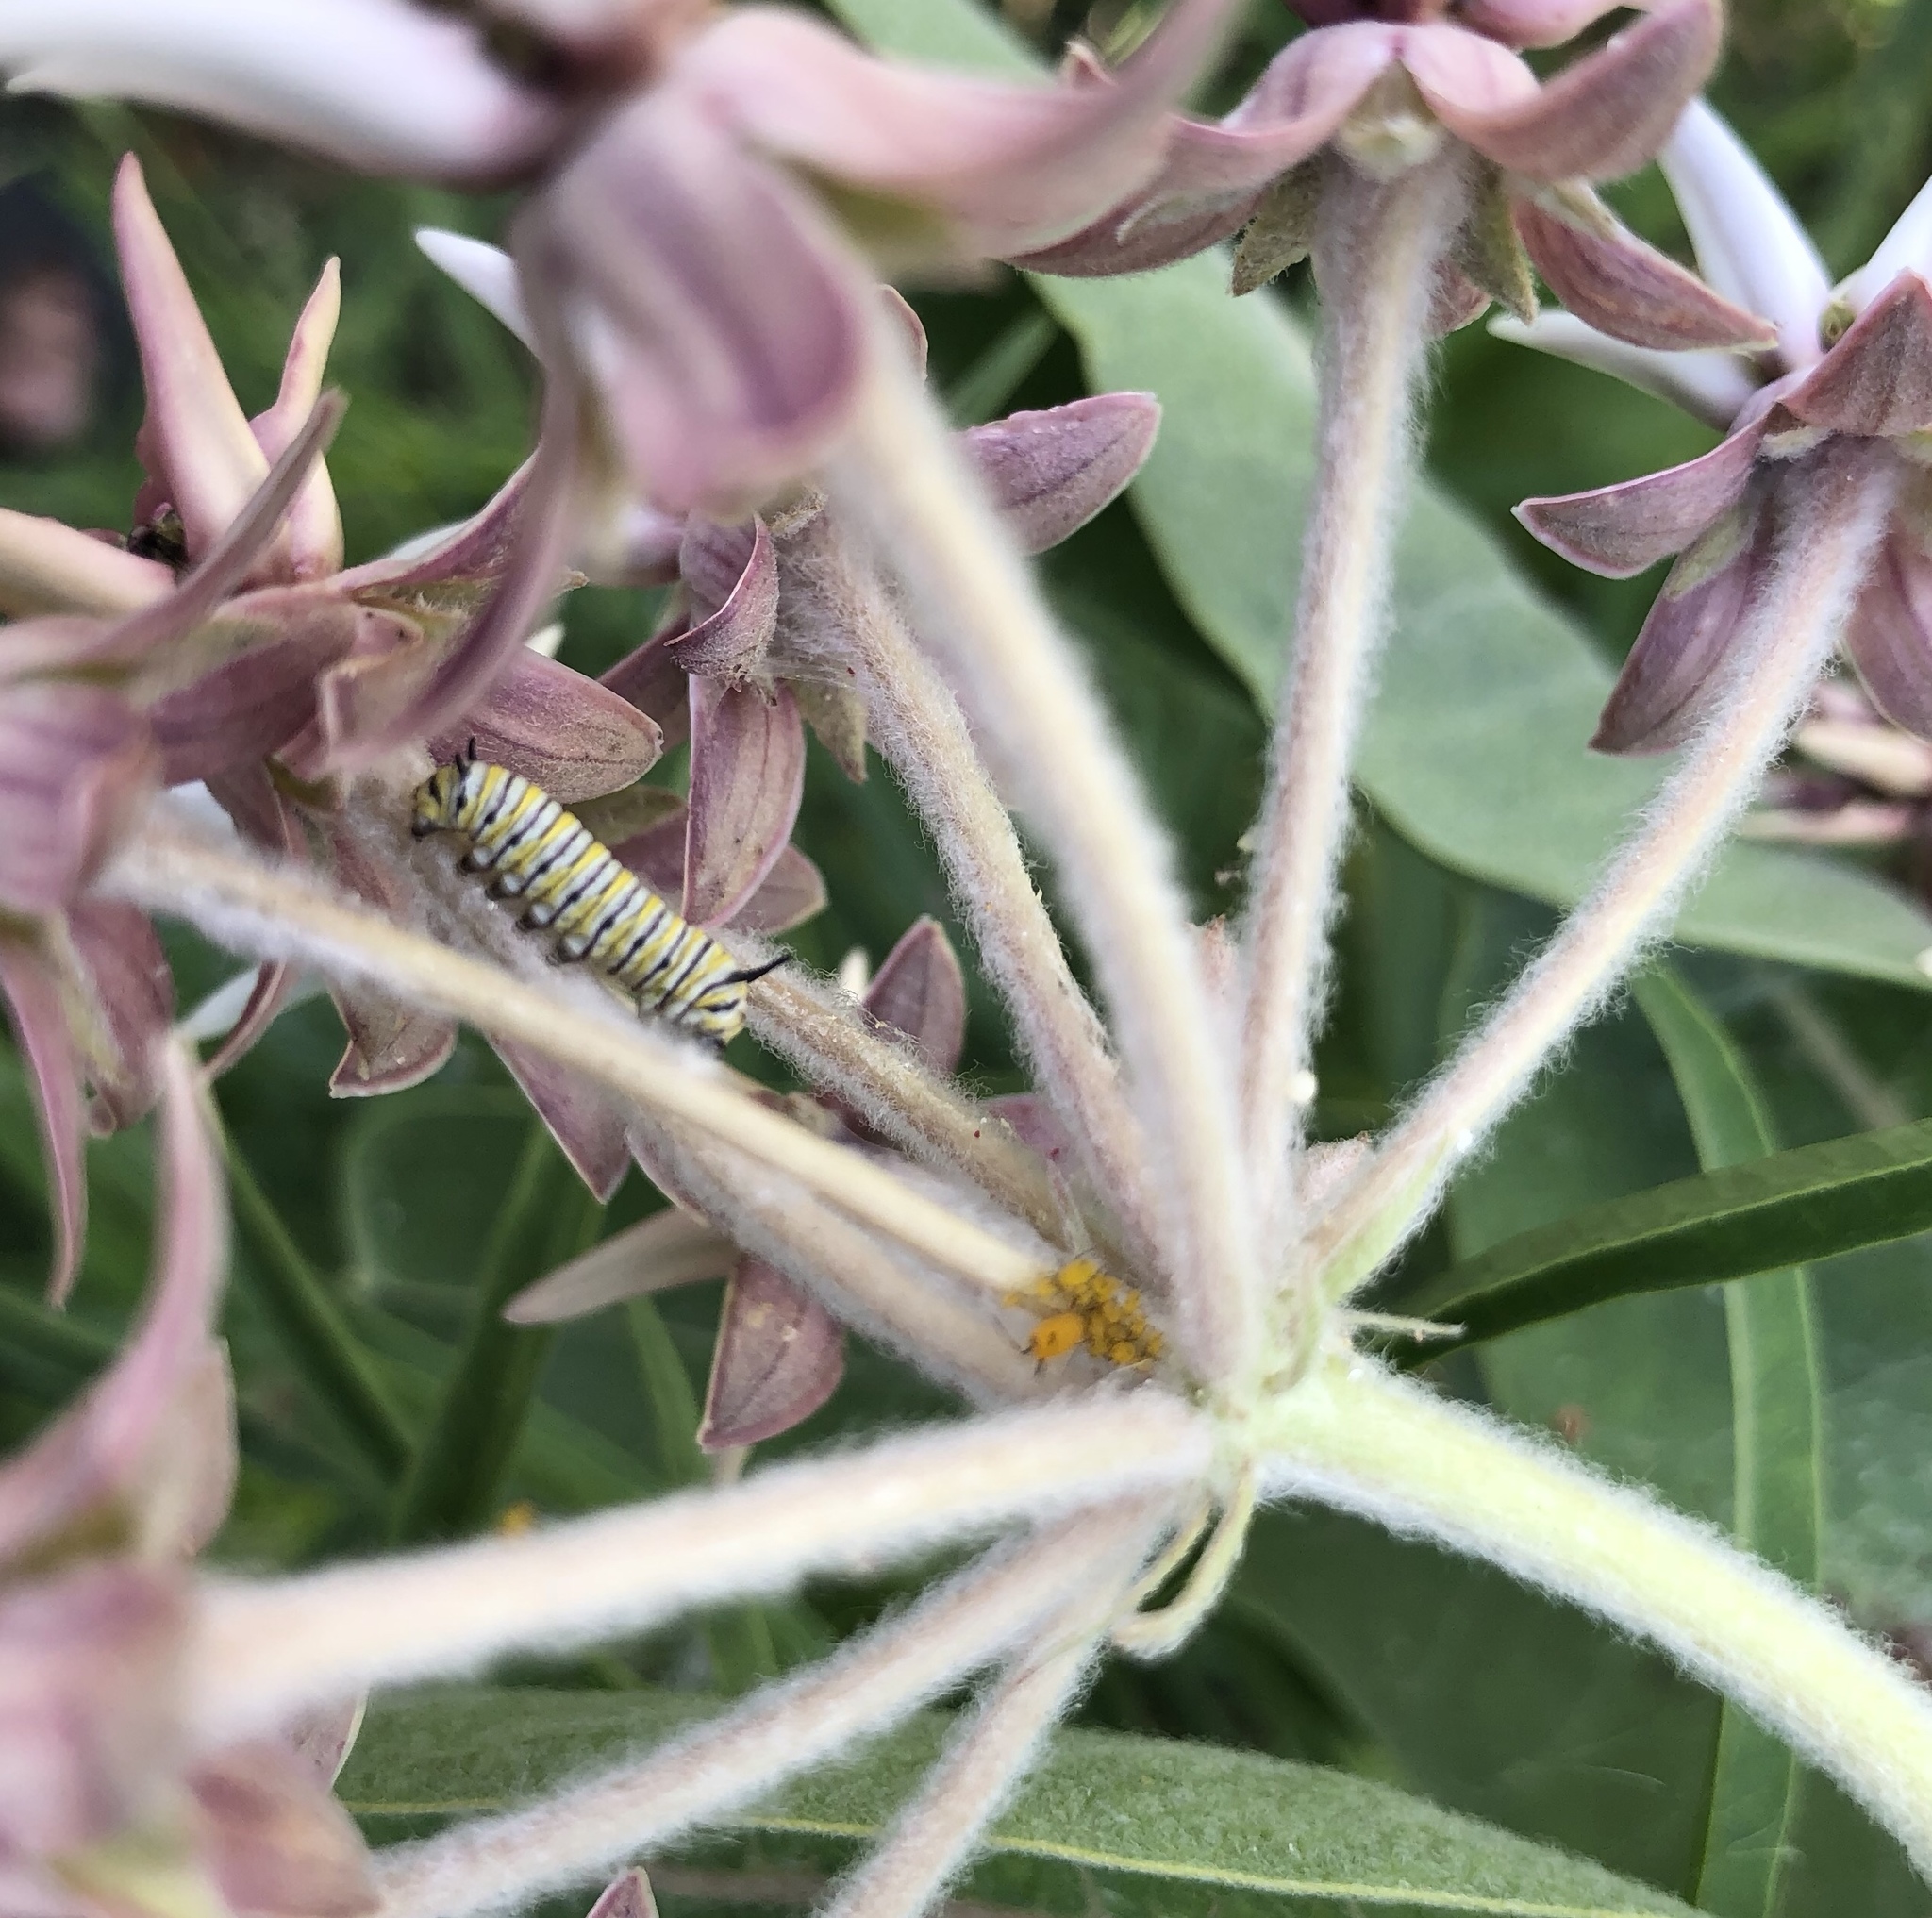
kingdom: Animalia
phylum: Arthropoda
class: Insecta
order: Lepidoptera
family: Nymphalidae
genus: Danaus
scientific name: Danaus plexippus
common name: Monarch
